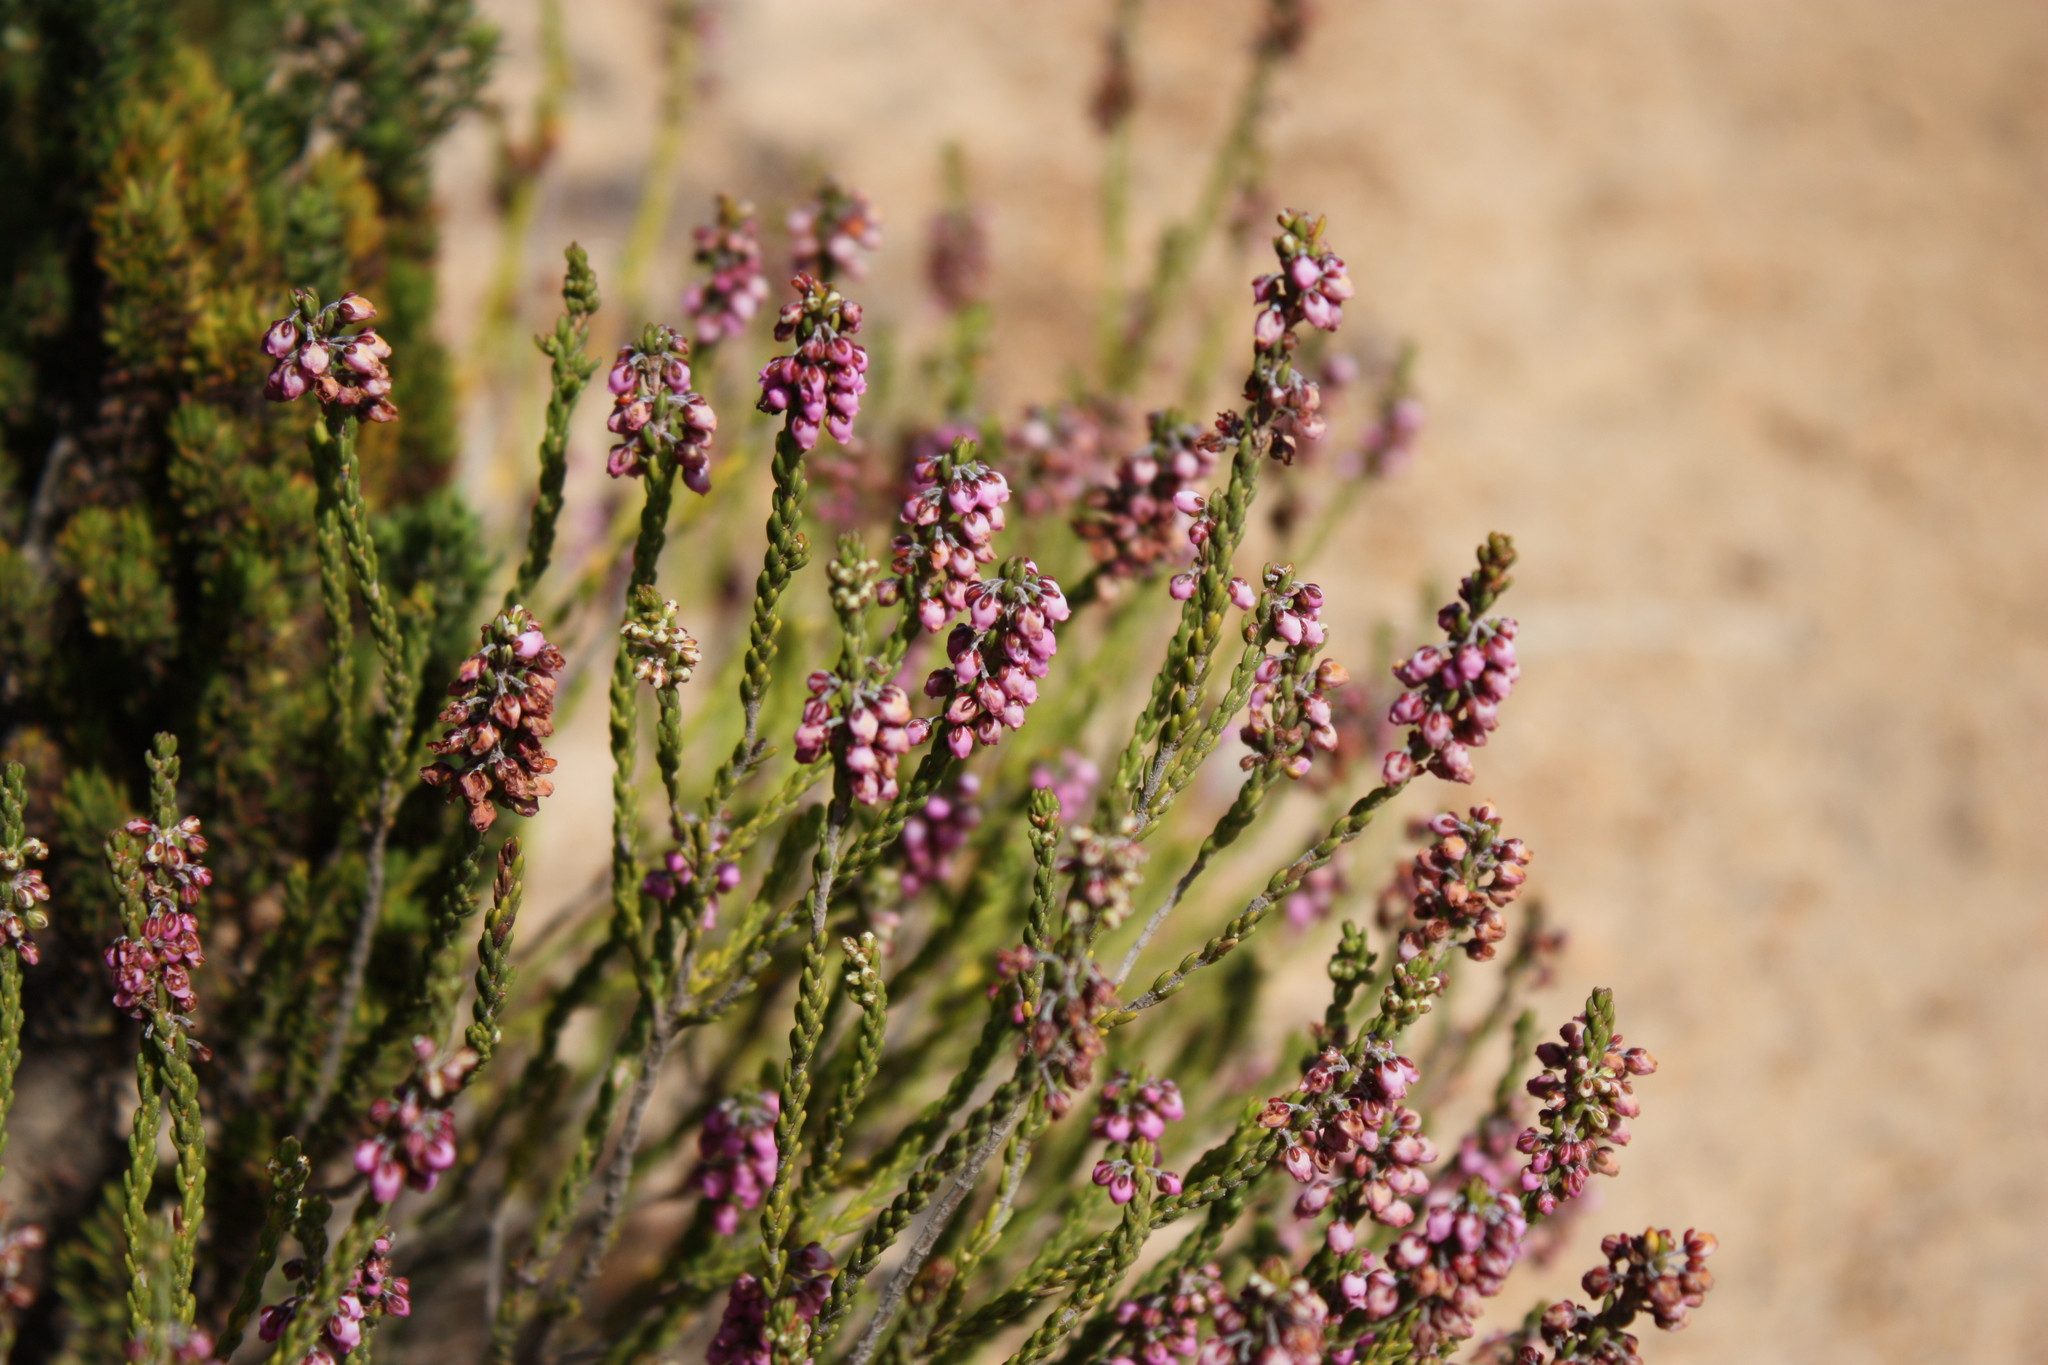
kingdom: Plantae
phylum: Tracheophyta
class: Magnoliopsida
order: Ericales
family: Ericaceae
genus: Erica
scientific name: Erica pulchella
